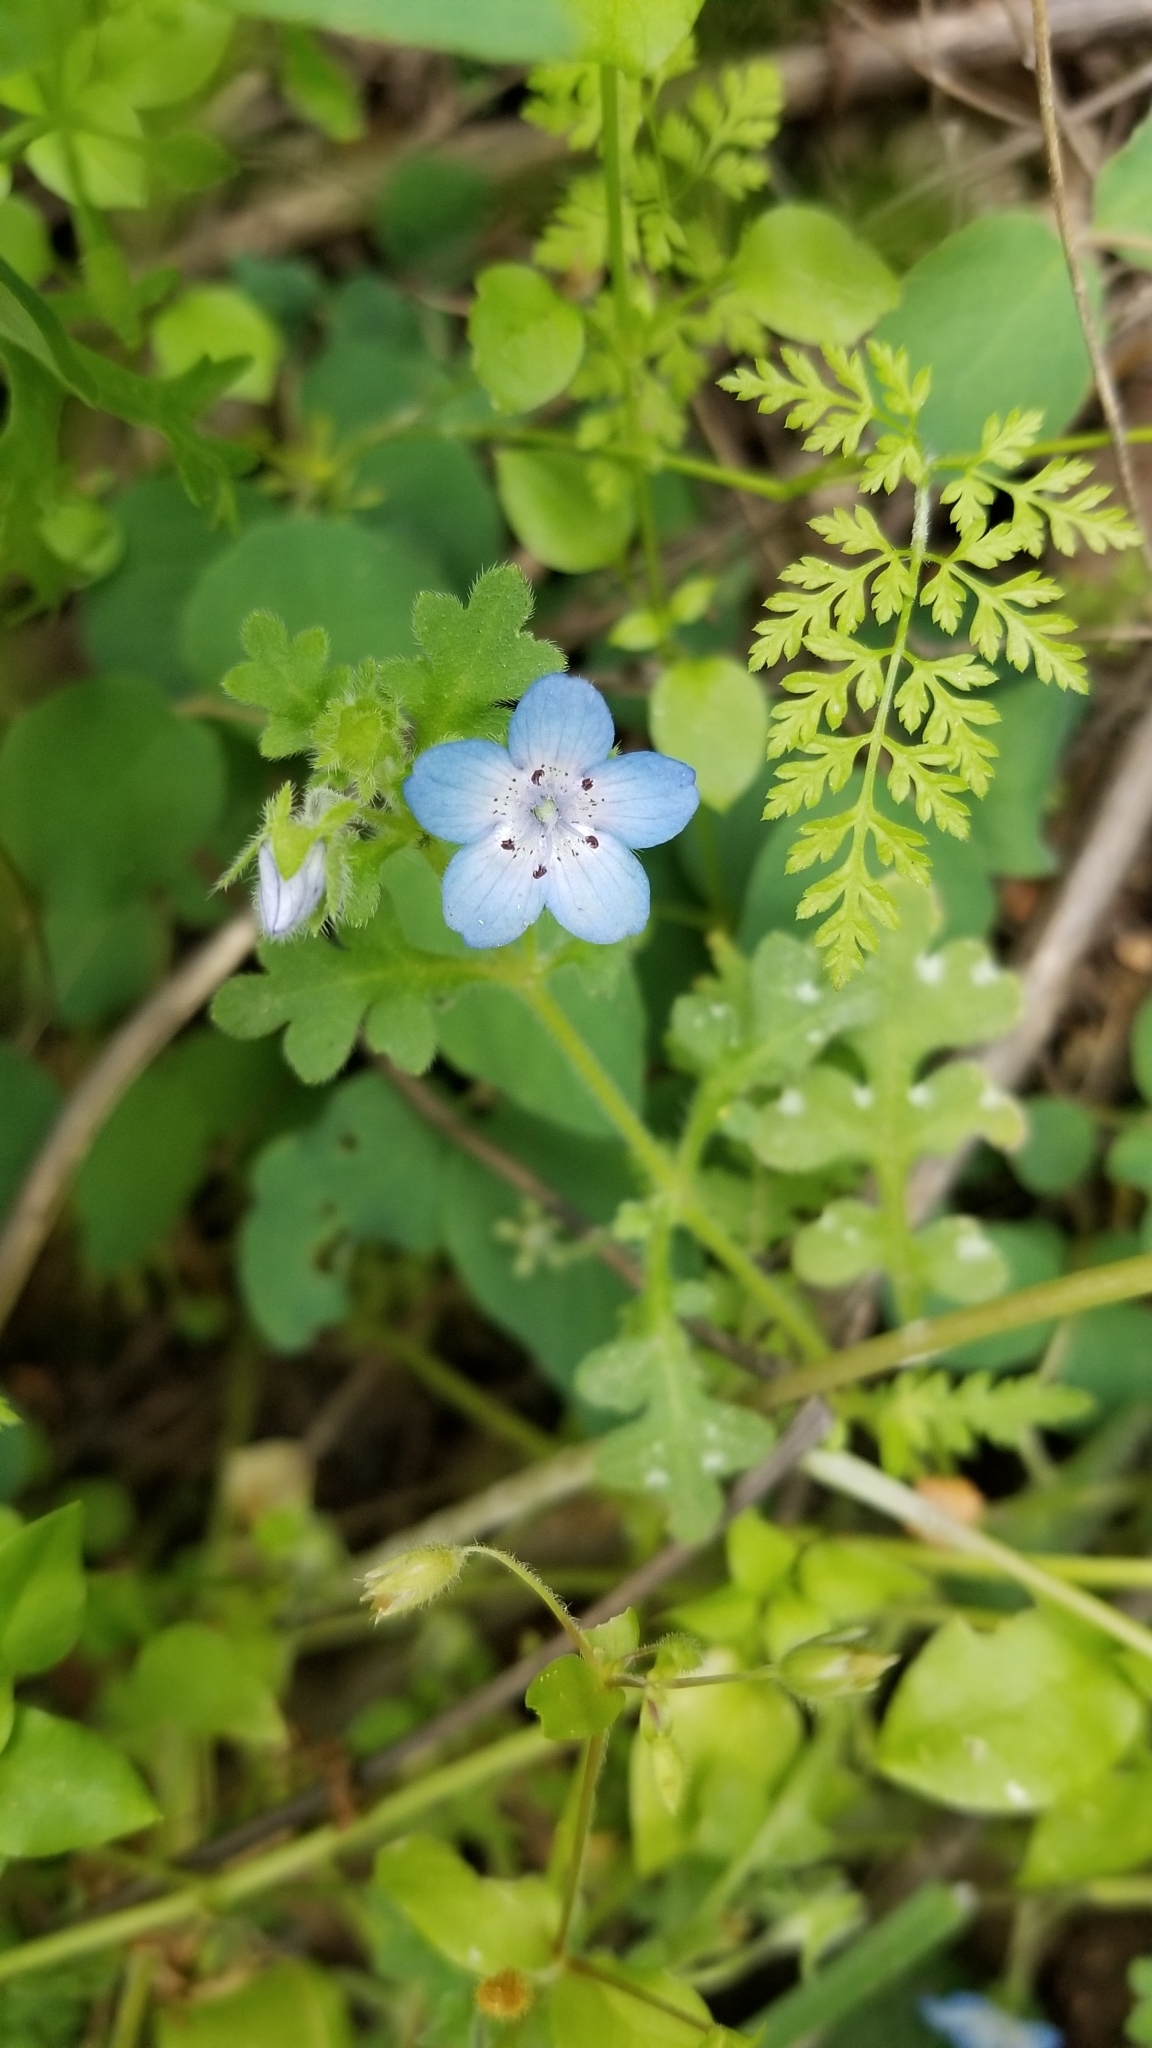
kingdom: Plantae
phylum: Tracheophyta
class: Magnoliopsida
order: Boraginales
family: Hydrophyllaceae
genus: Nemophila
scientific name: Nemophila menziesii
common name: Baby's-blue-eyes
